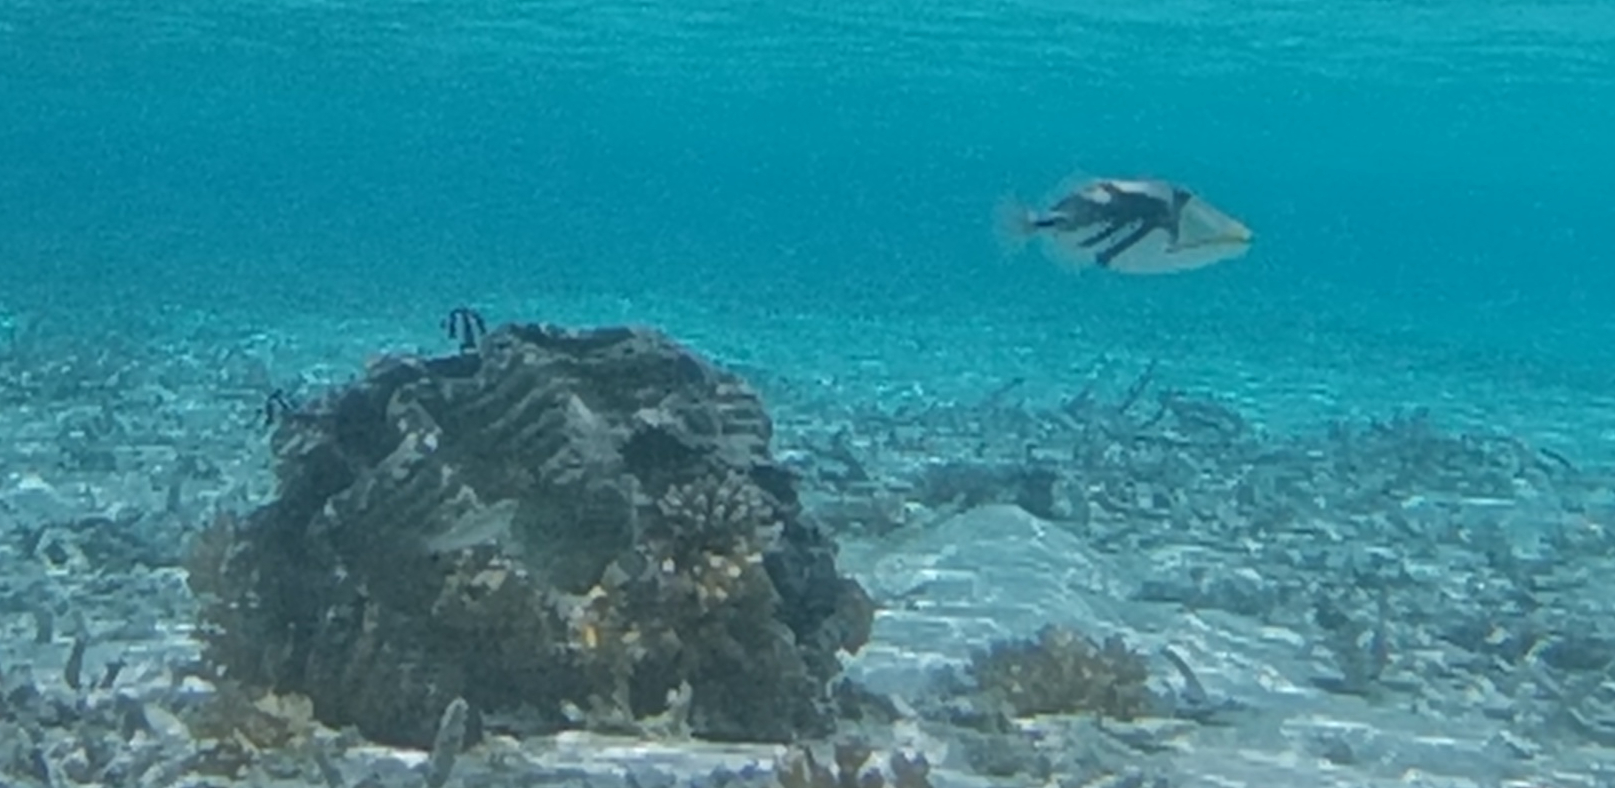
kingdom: Animalia
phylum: Chordata
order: Tetraodontiformes
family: Balistidae
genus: Rhinecanthus
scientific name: Rhinecanthus aculeatus
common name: White-banded triggerfish
